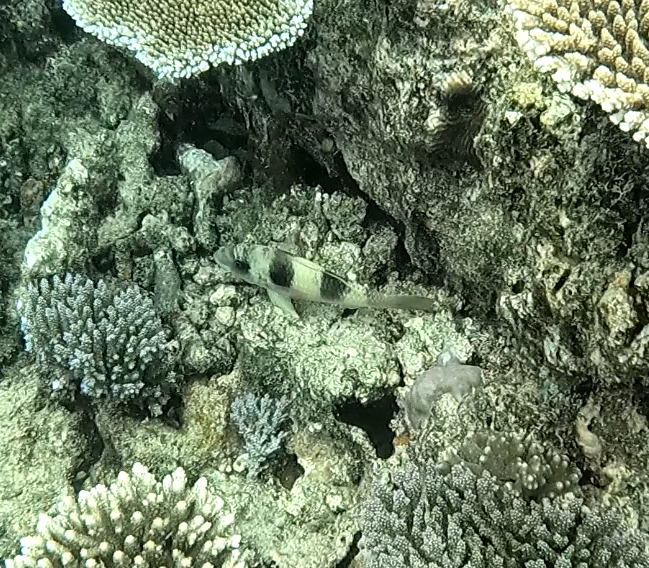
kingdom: Animalia
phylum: Chordata
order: Perciformes
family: Mullidae
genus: Parupeneus
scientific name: Parupeneus crassilabris
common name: Doublebar goatfish
